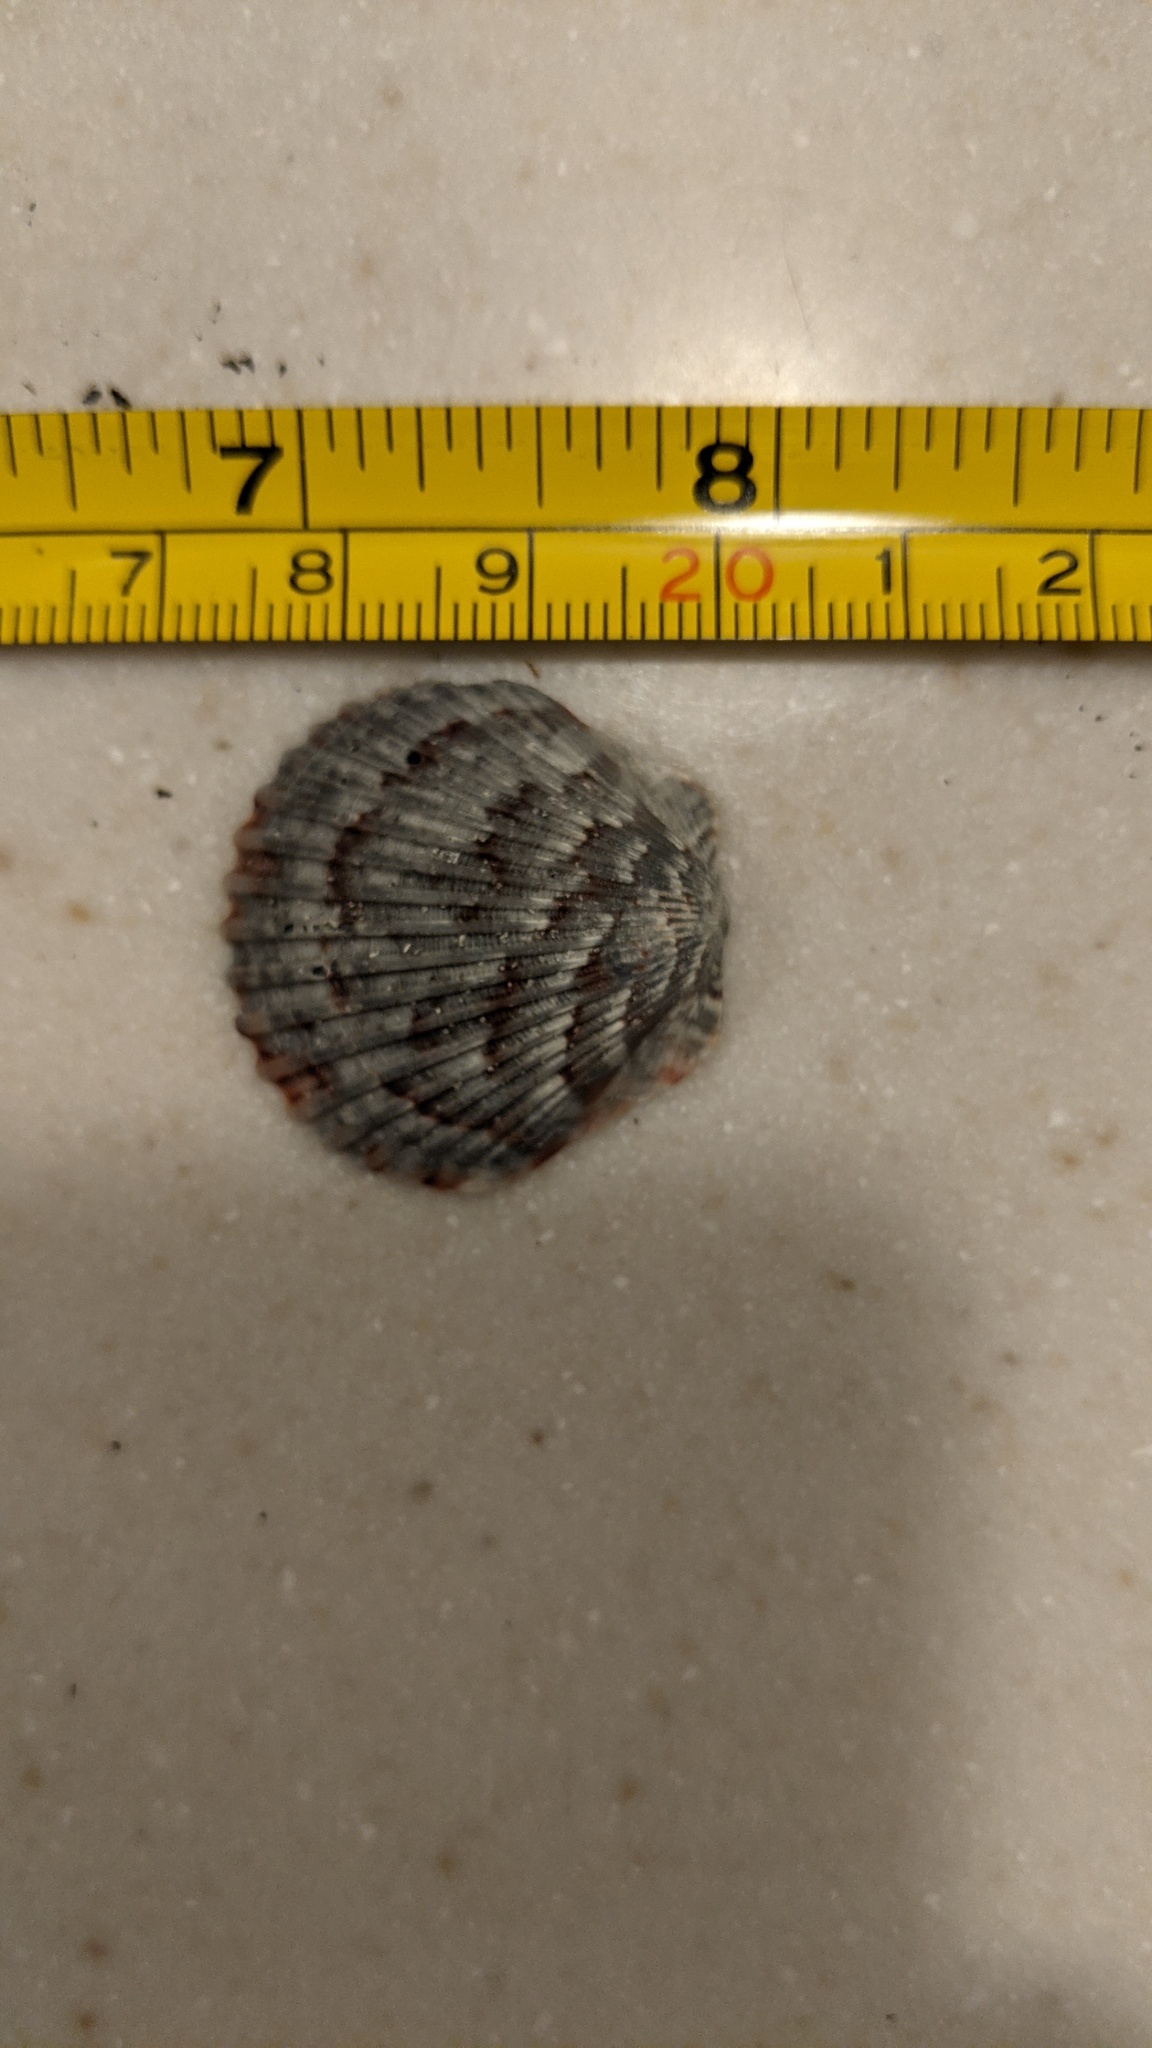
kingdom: Animalia
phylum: Mollusca
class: Bivalvia
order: Pectinida
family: Pectinidae
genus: Argopecten
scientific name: Argopecten gibbus
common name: Atlantic calico scallop
